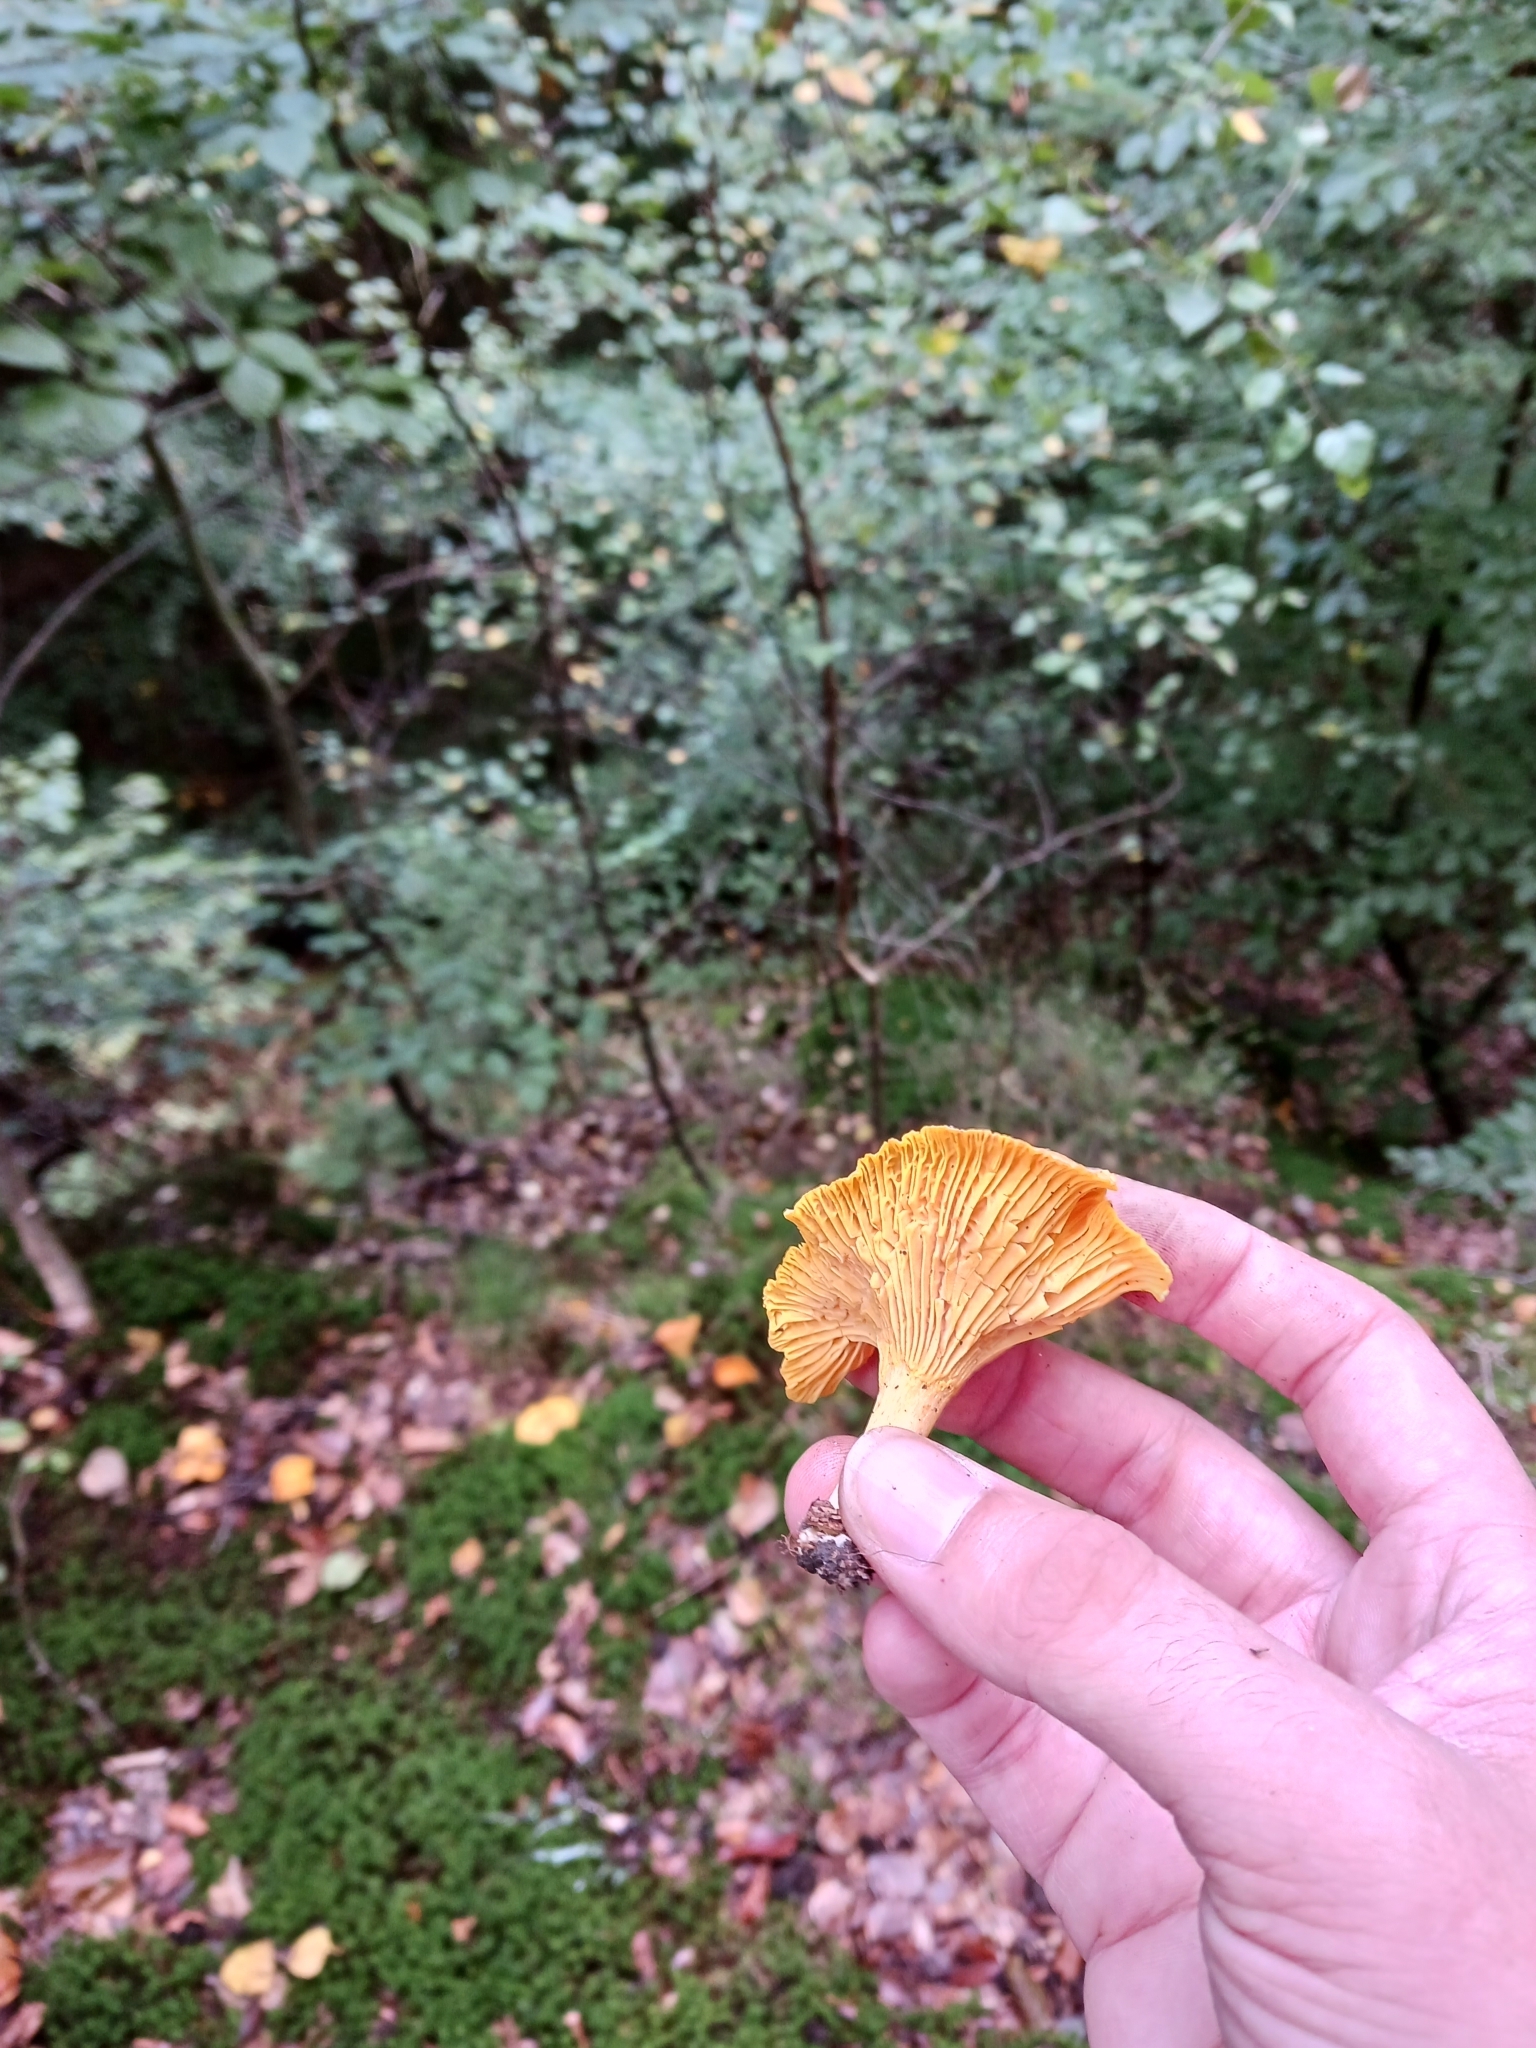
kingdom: Fungi
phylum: Basidiomycota
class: Agaricomycetes
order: Cantharellales
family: Hydnaceae
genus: Cantharellus
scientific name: Cantharellus cibarius
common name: Chanterelle
